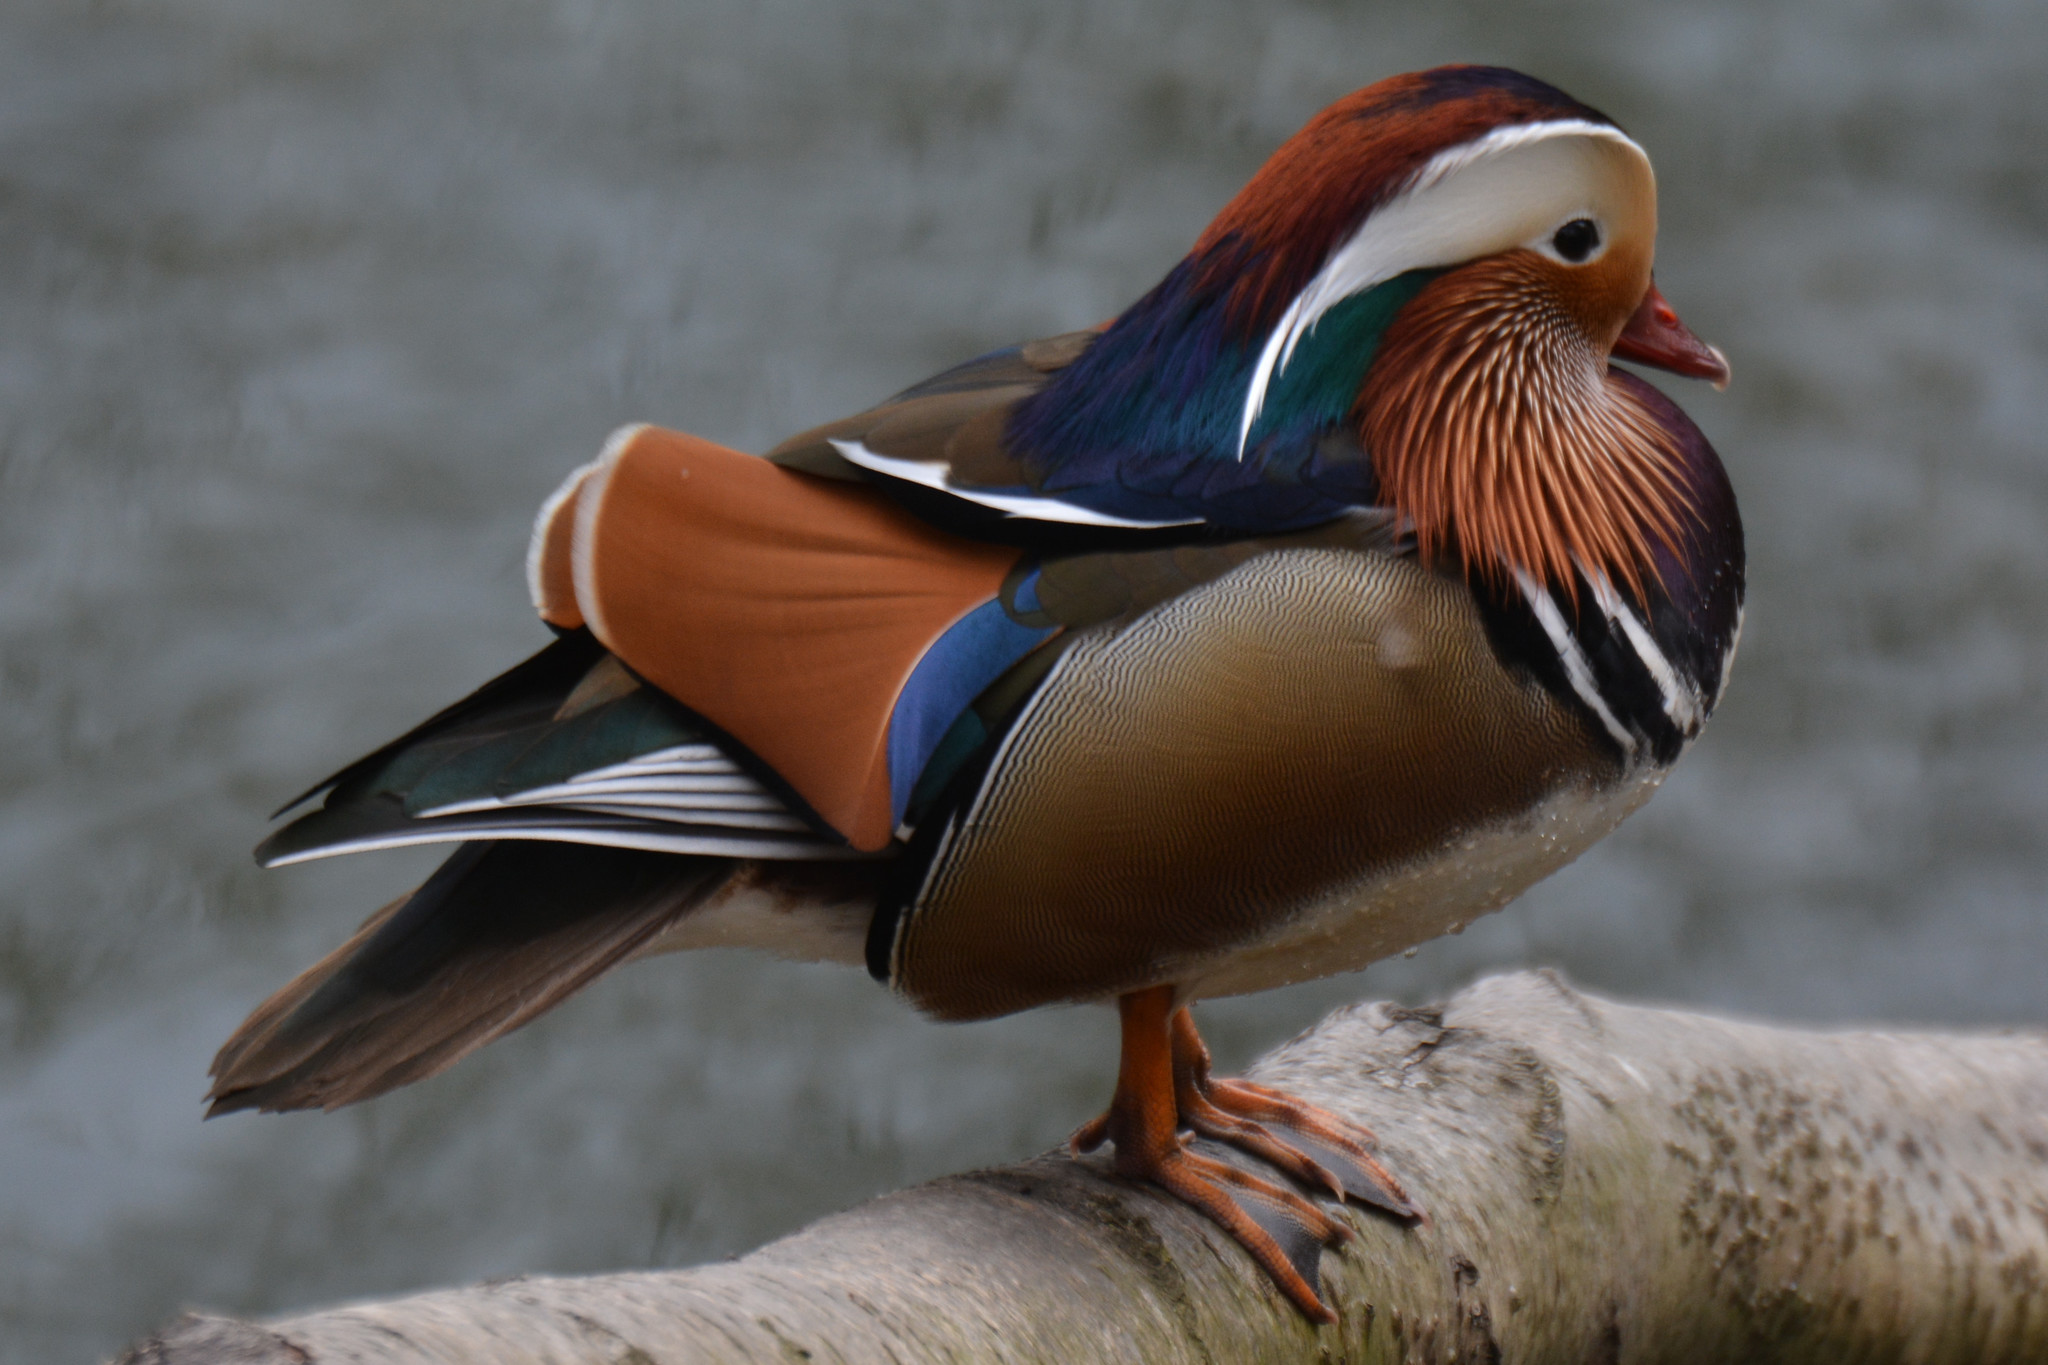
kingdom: Animalia
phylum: Chordata
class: Aves
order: Anseriformes
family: Anatidae
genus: Aix
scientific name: Aix galericulata
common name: Mandarin duck
